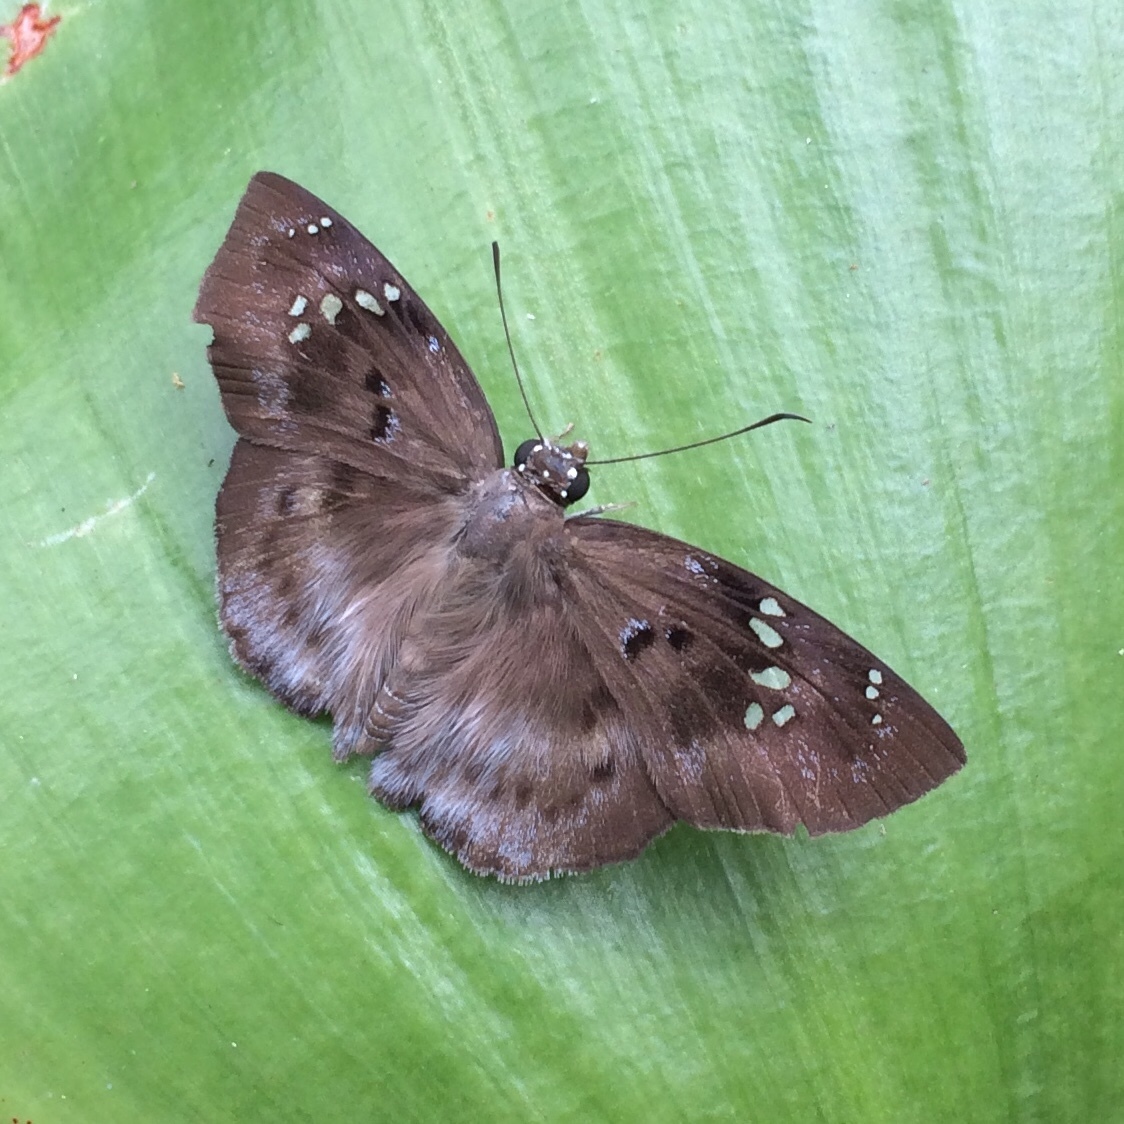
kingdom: Animalia
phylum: Arthropoda
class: Insecta
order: Lepidoptera
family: Hesperiidae
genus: Tagiades
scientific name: Tagiades flesus
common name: Clouded flat
